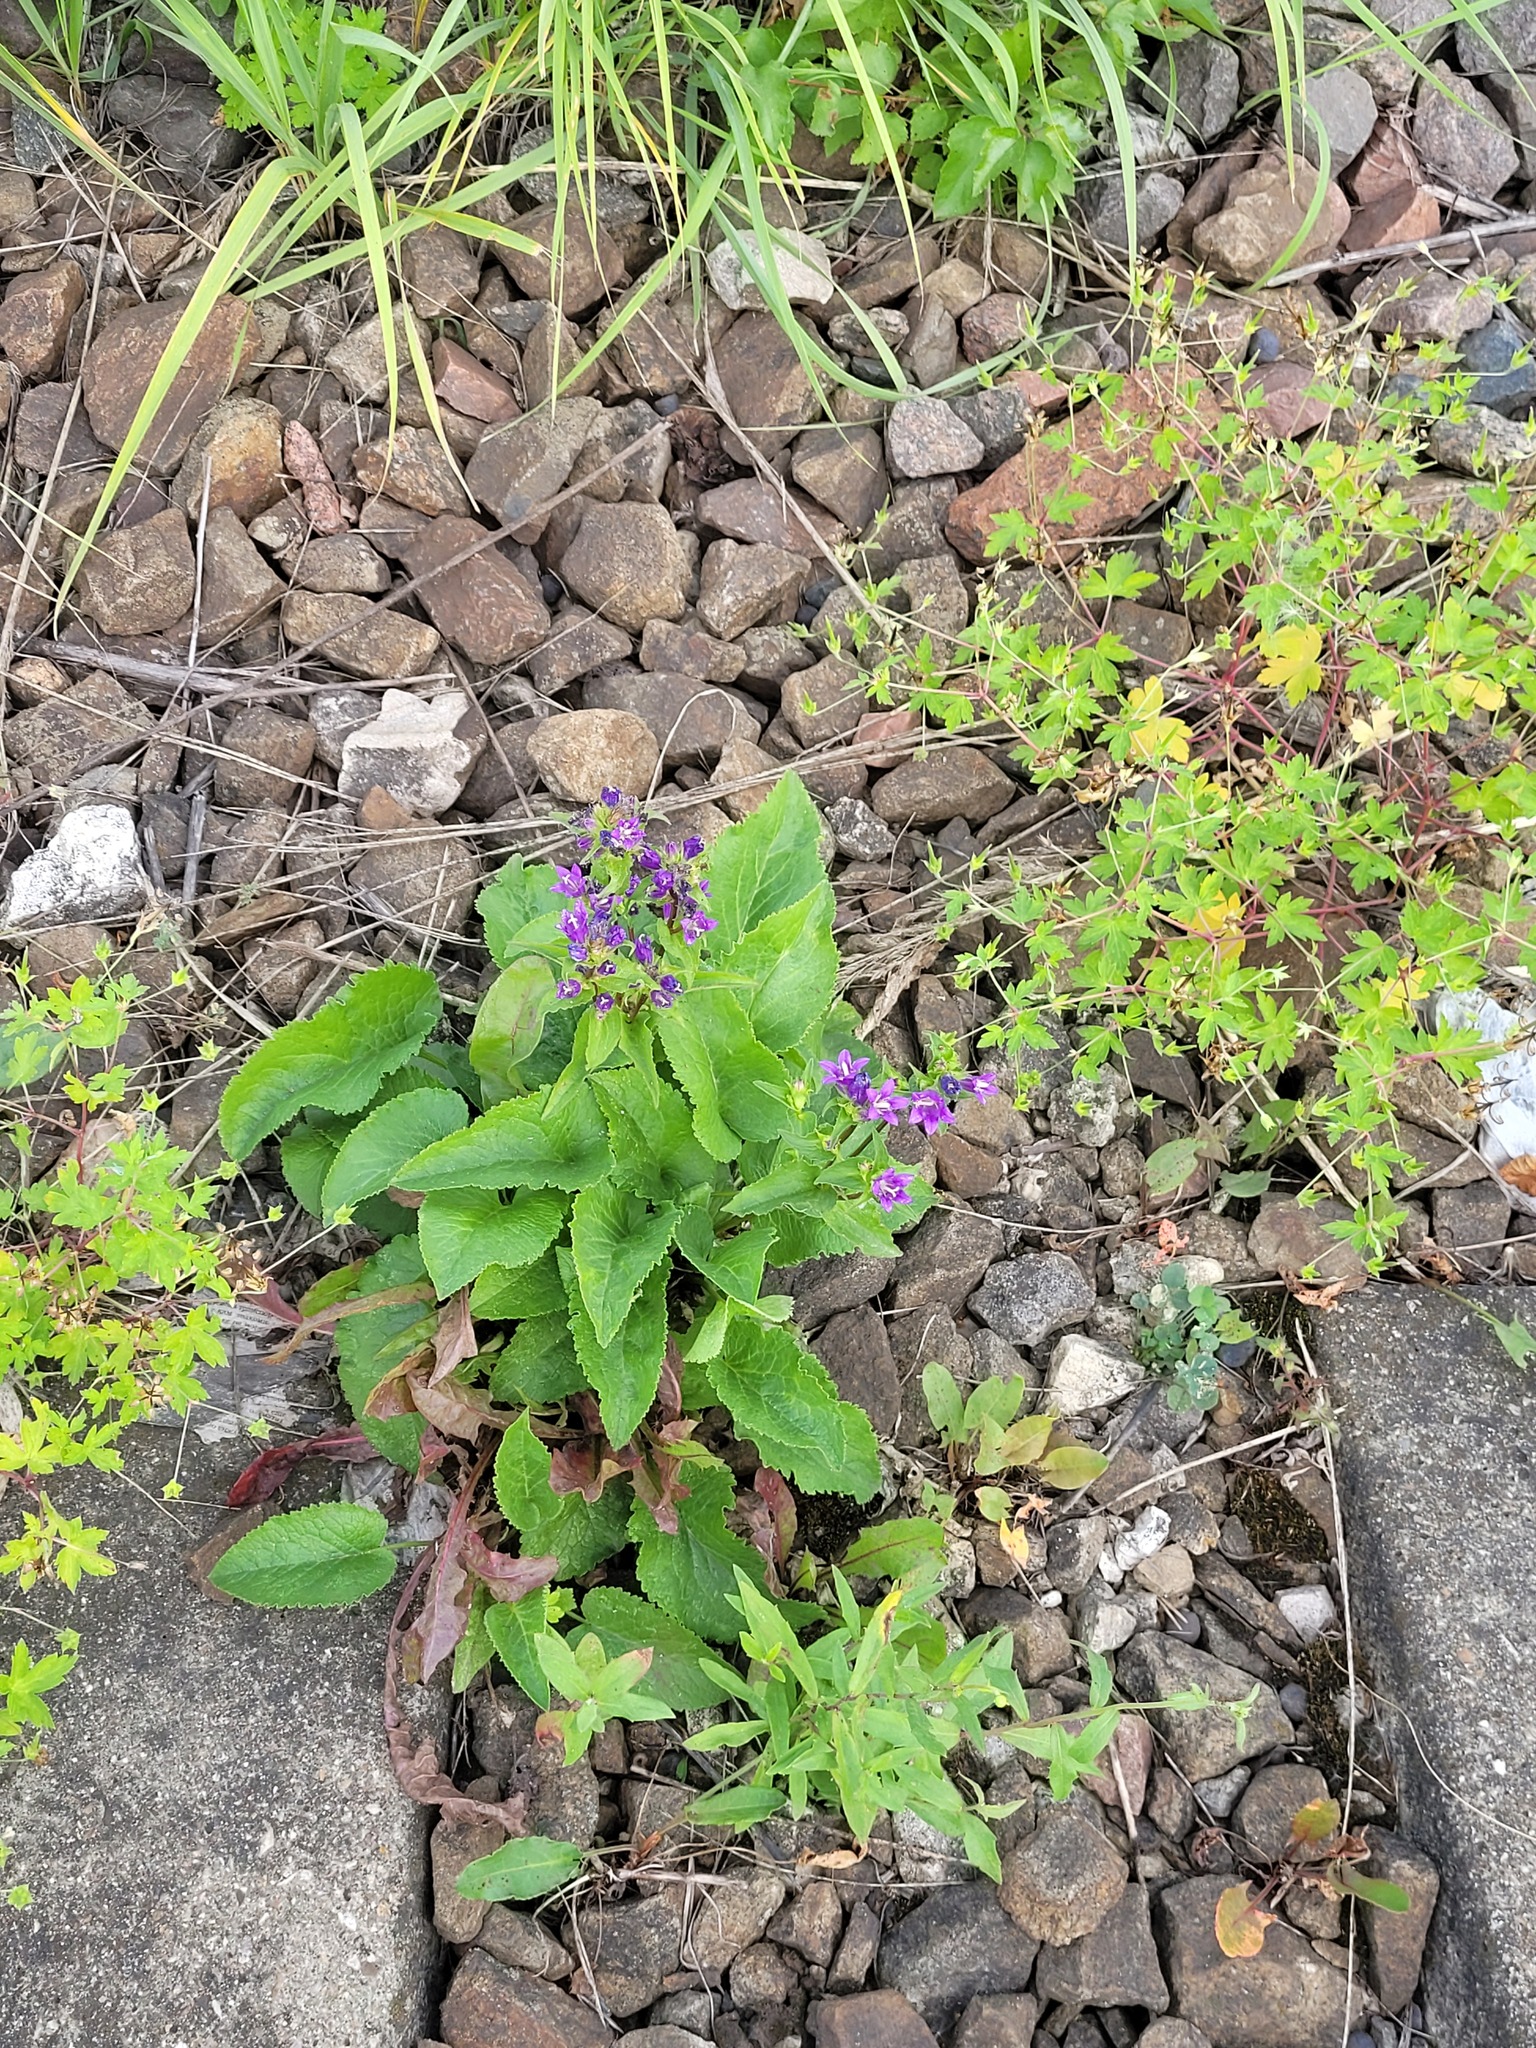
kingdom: Plantae
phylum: Tracheophyta
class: Magnoliopsida
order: Asterales
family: Campanulaceae
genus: Campanula
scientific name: Campanula glomerata
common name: Clustered bellflower
